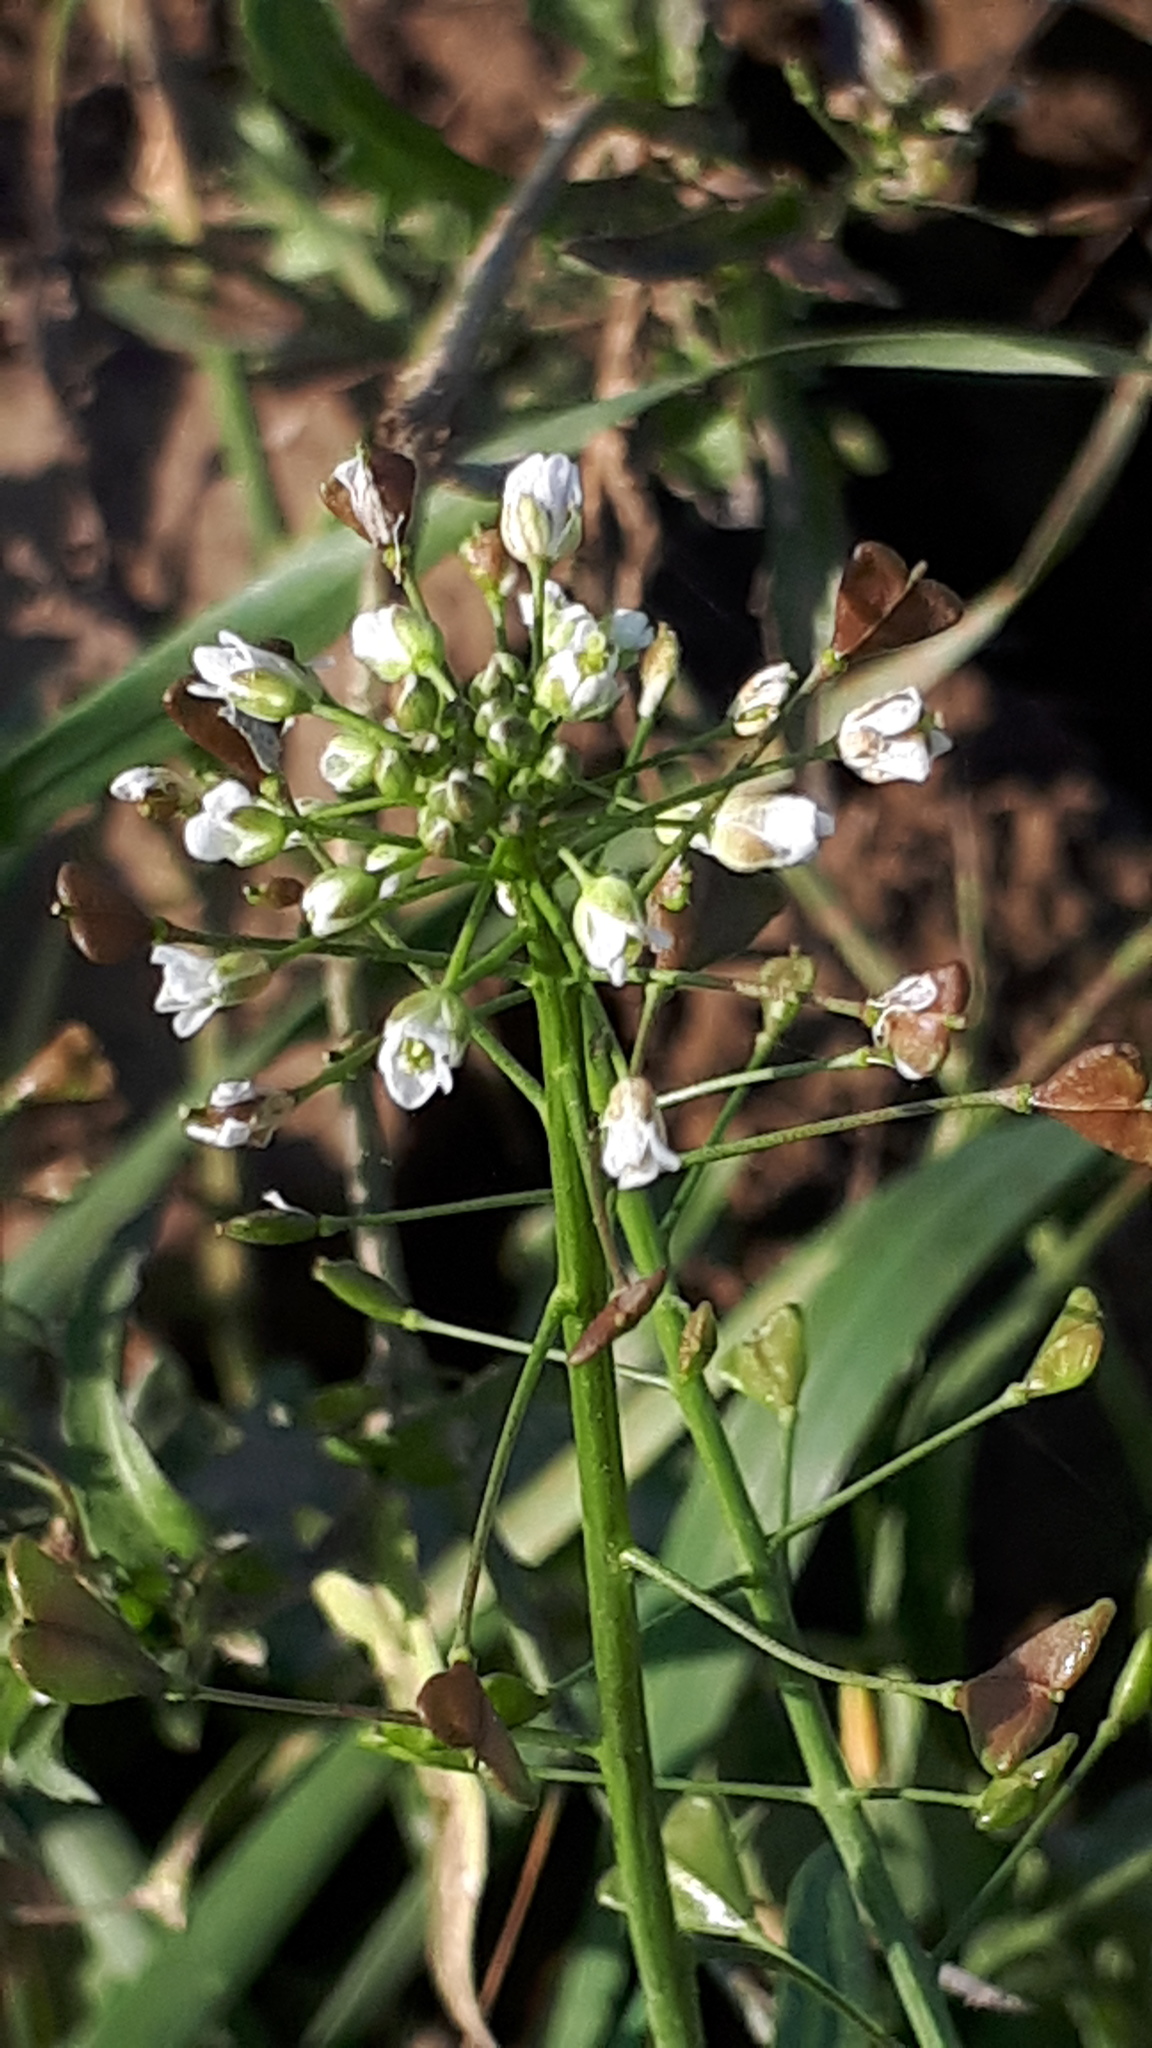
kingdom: Plantae
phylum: Tracheophyta
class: Magnoliopsida
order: Brassicales
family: Brassicaceae
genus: Capsella
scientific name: Capsella bursa-pastoris
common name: Shepherd's purse
